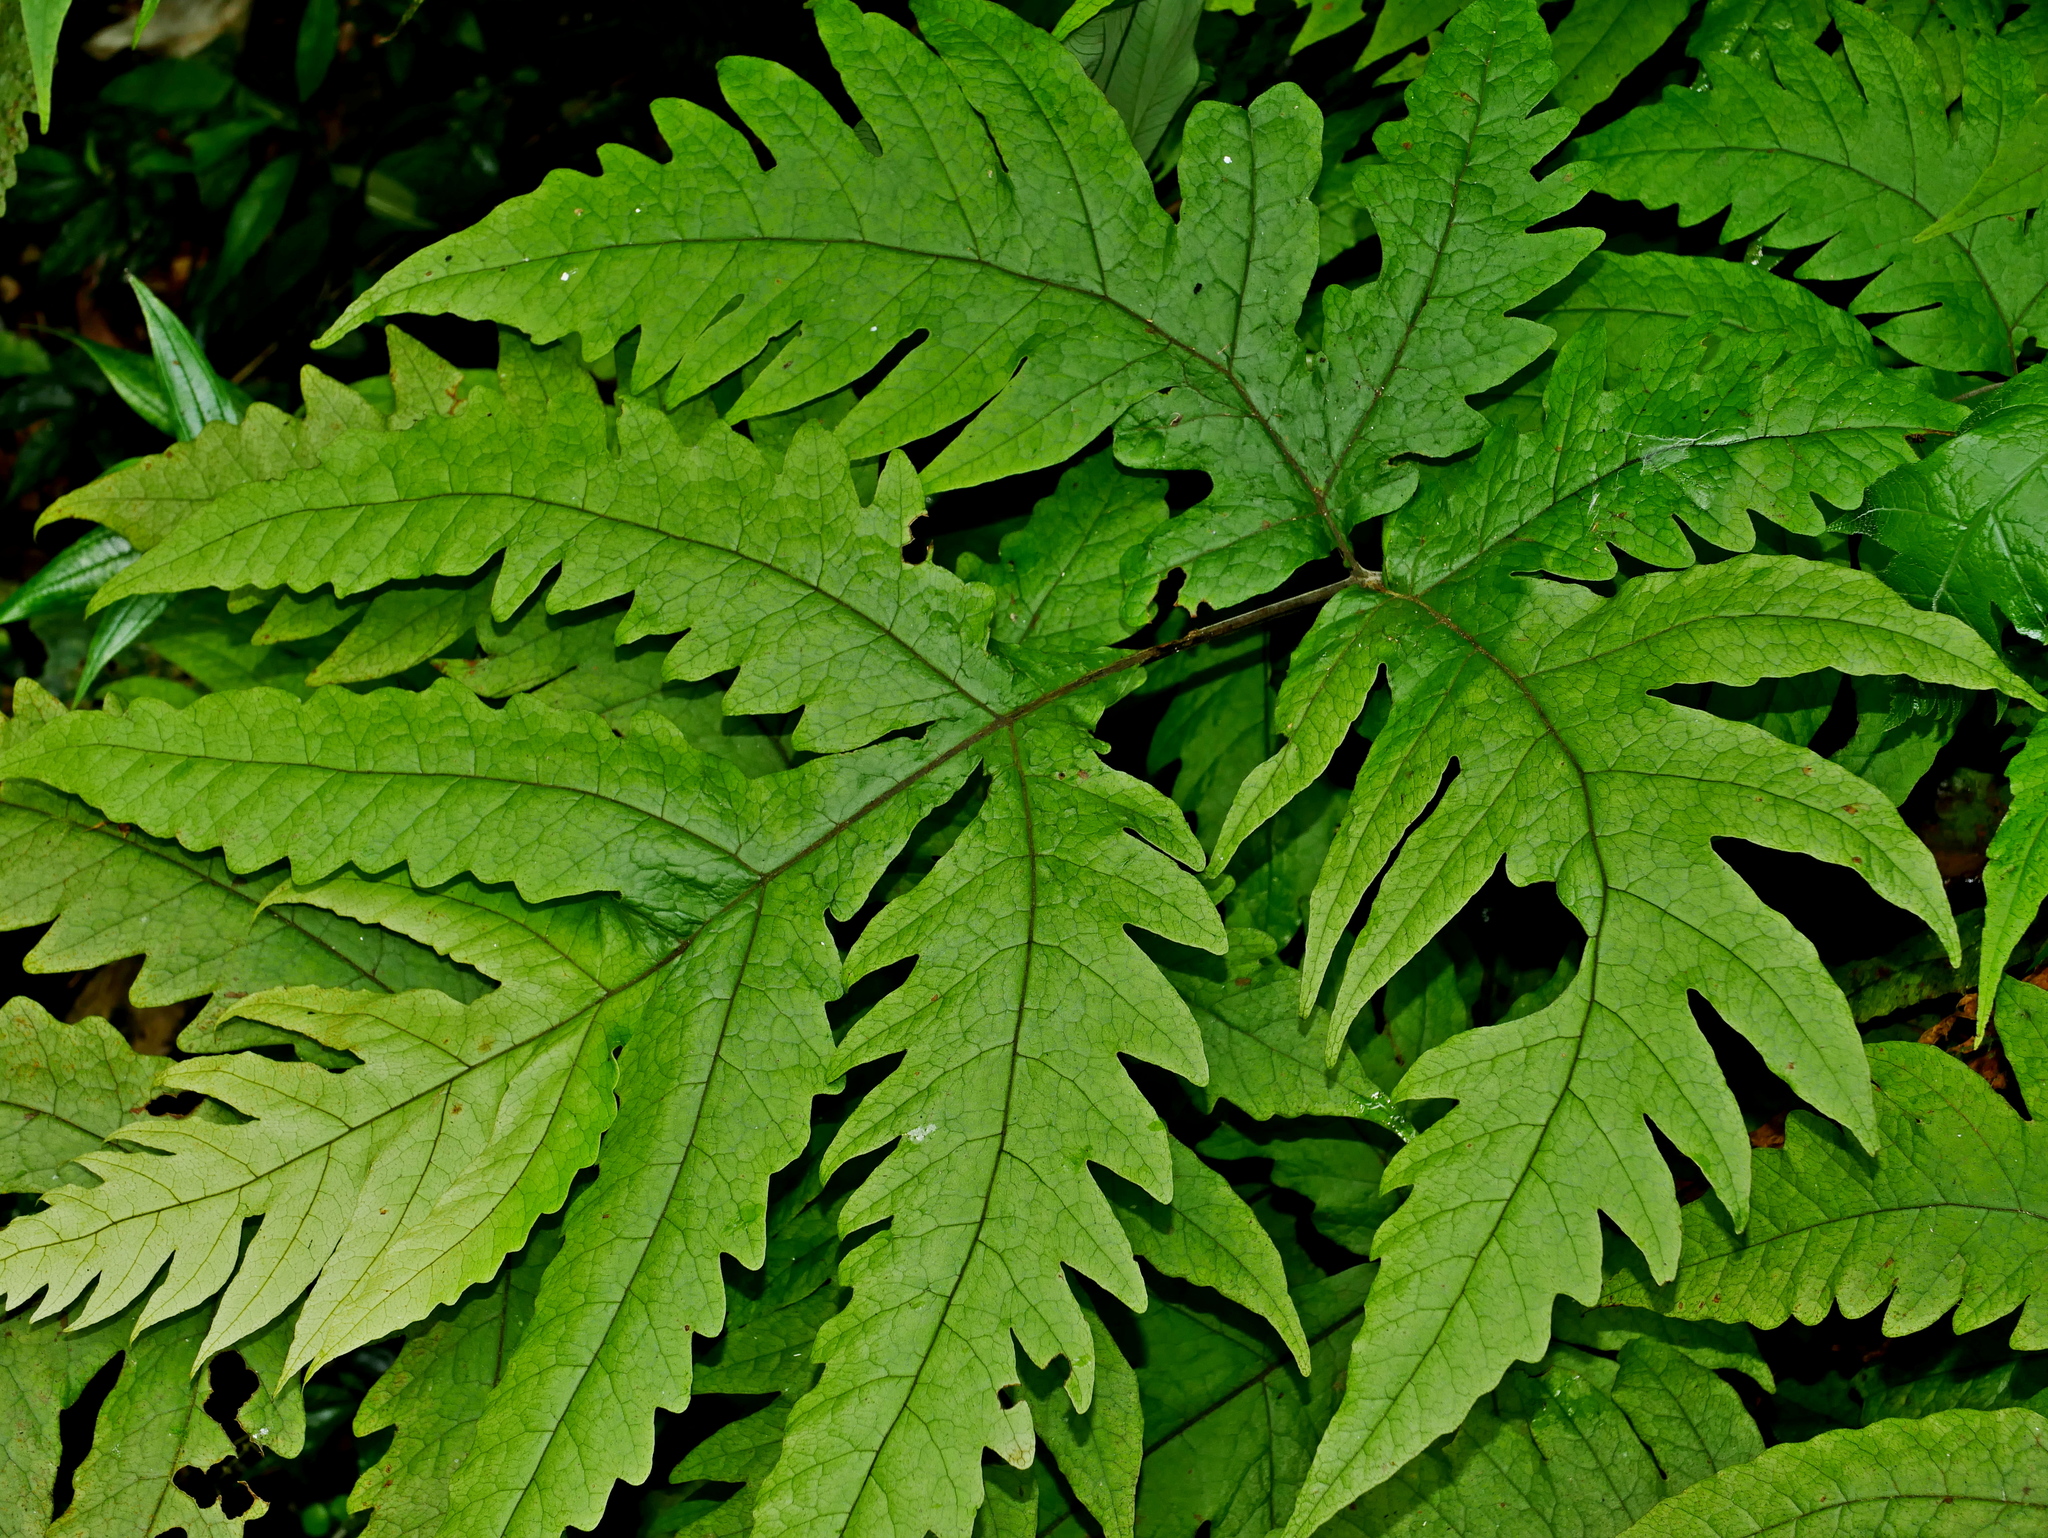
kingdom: Plantae
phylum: Tracheophyta
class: Polypodiopsida
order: Polypodiales
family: Tectariaceae
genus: Tectaria
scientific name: Tectaria griffithii
